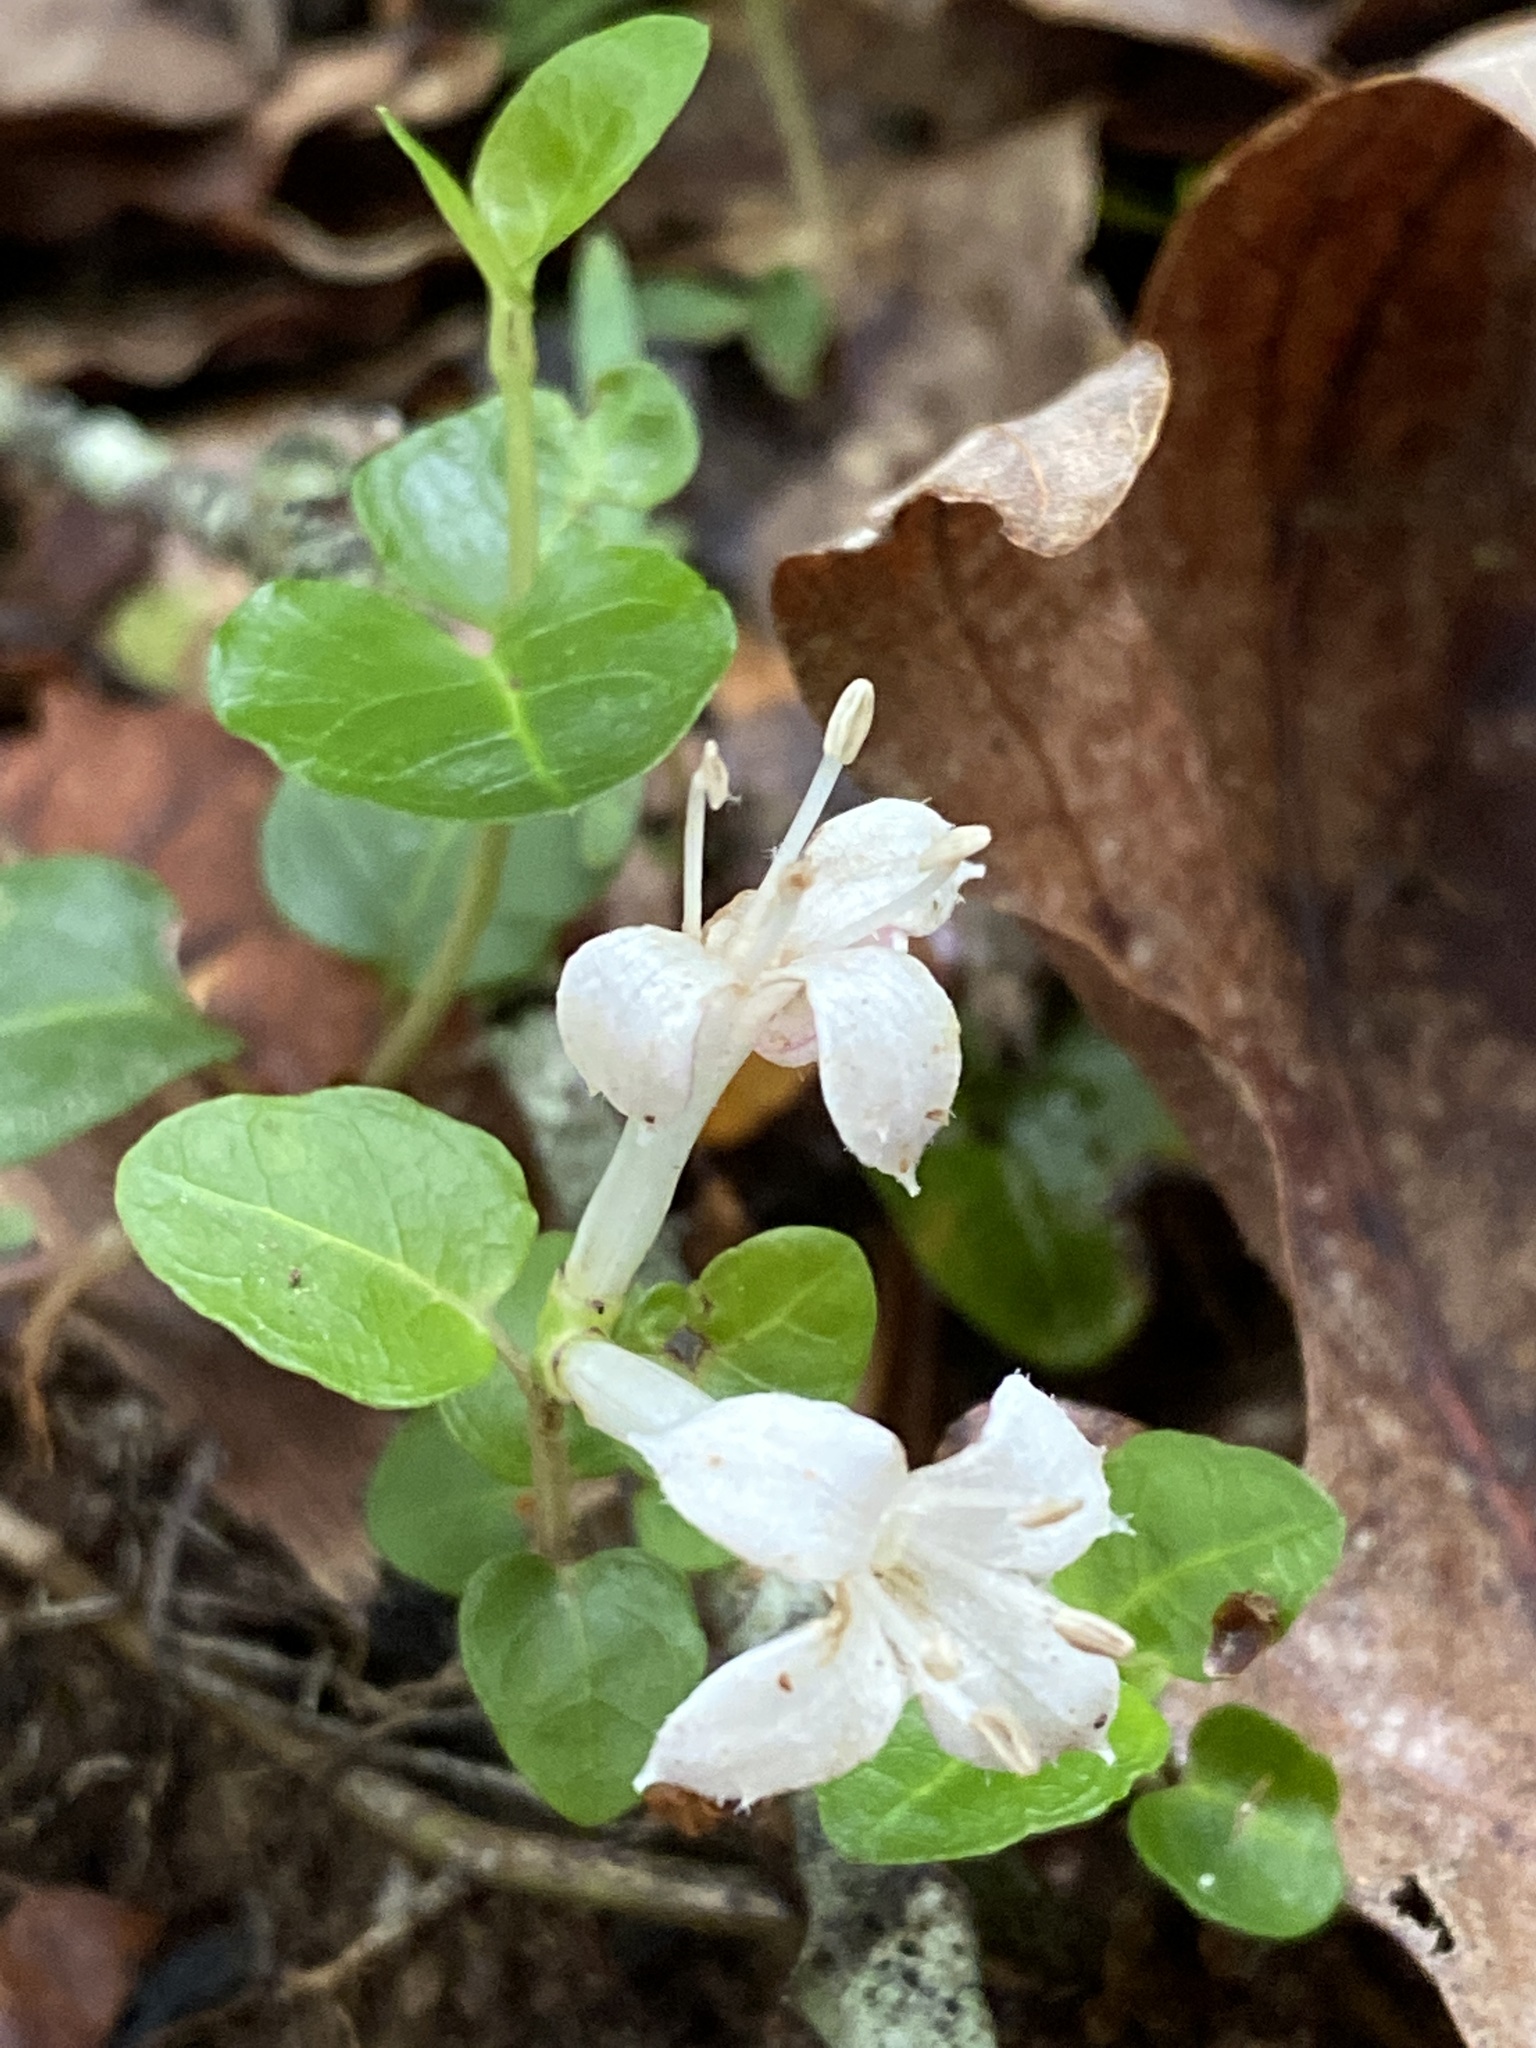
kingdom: Plantae
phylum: Tracheophyta
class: Magnoliopsida
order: Gentianales
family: Rubiaceae
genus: Mitchella
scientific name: Mitchella repens
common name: Partridge-berry
